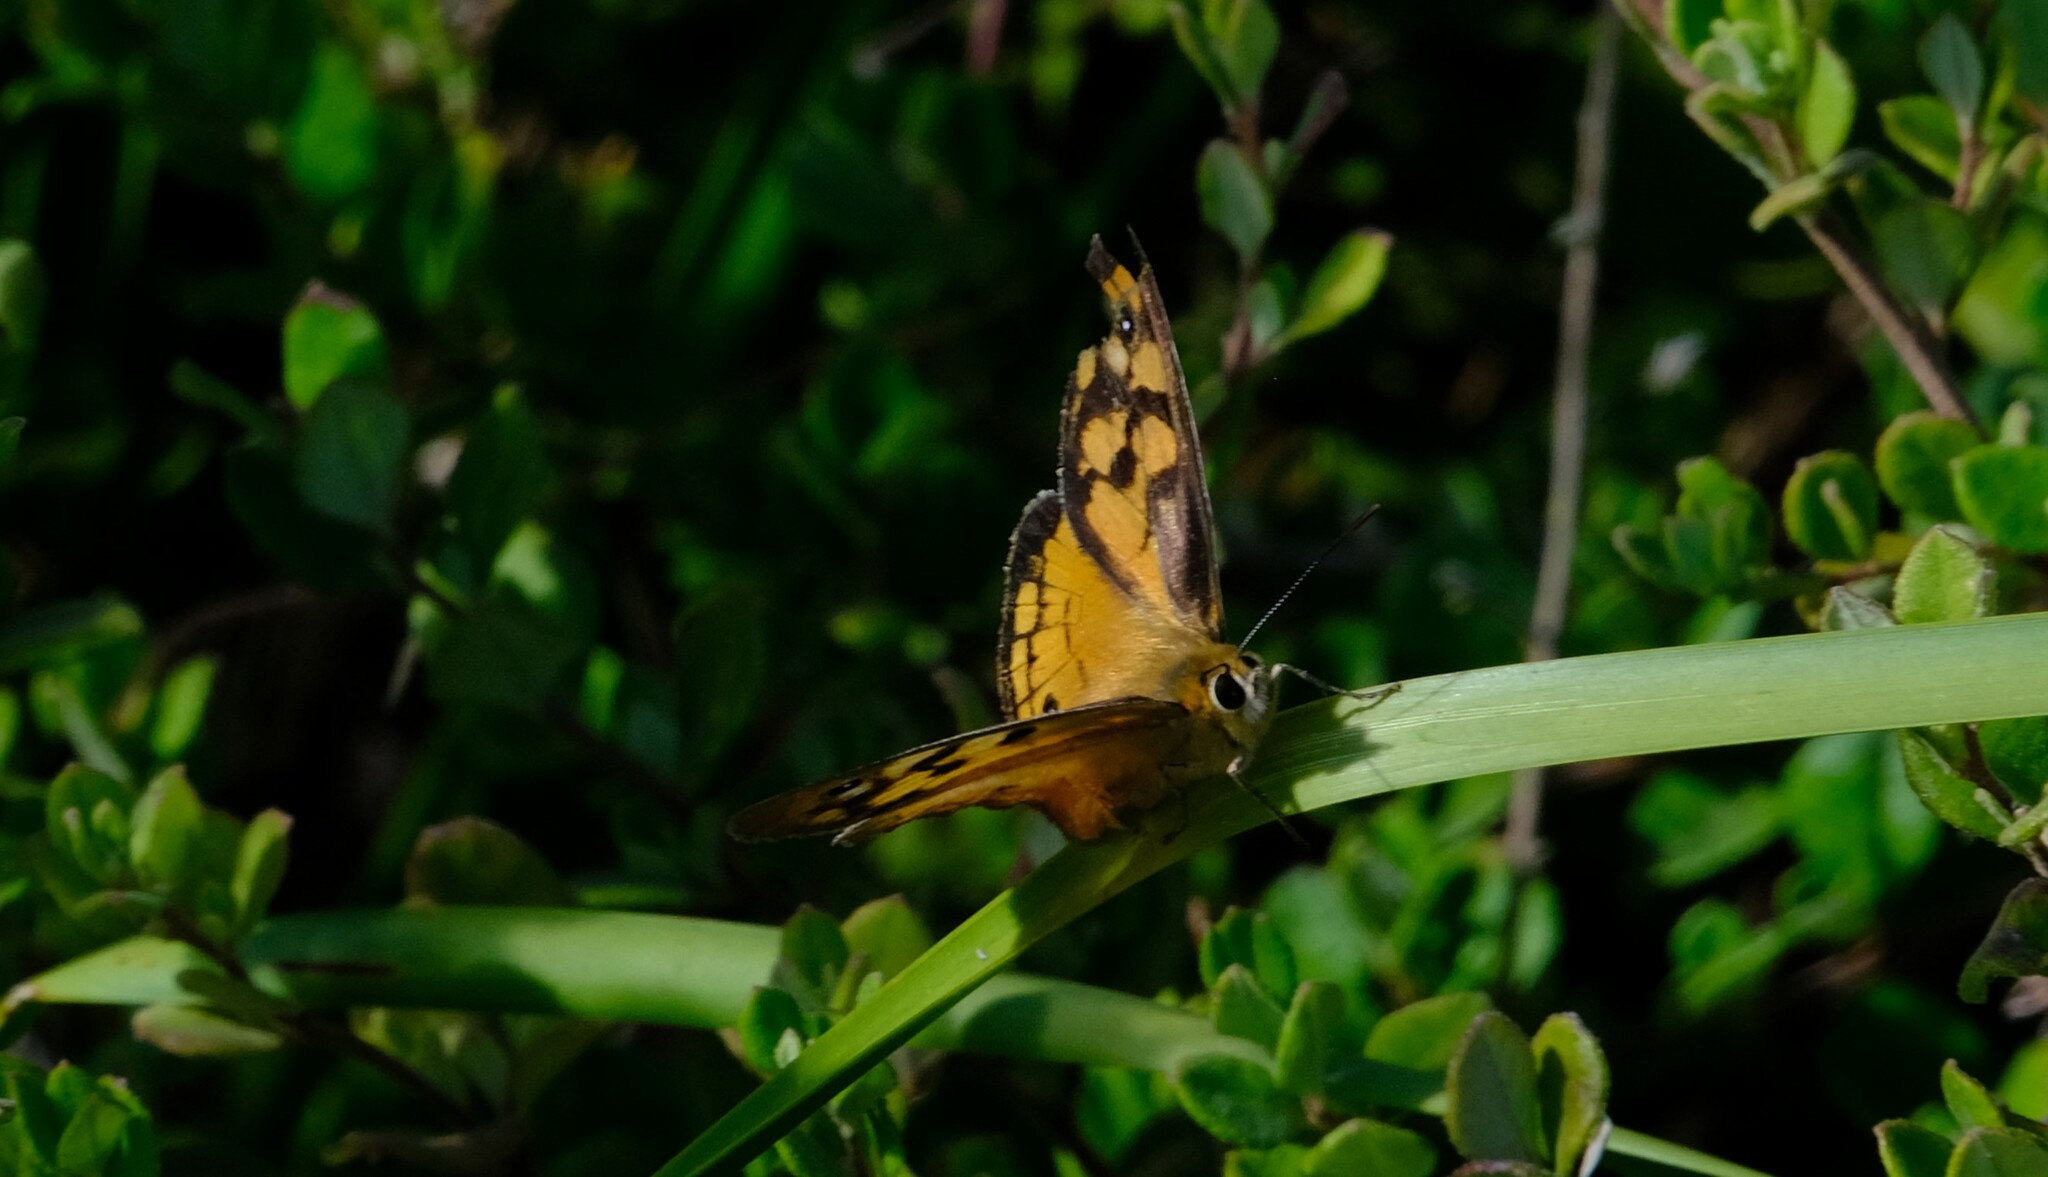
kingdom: Animalia
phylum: Arthropoda
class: Insecta
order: Lepidoptera
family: Nymphalidae
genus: Heteronympha
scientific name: Heteronympha penelope
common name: Shouldered brown
